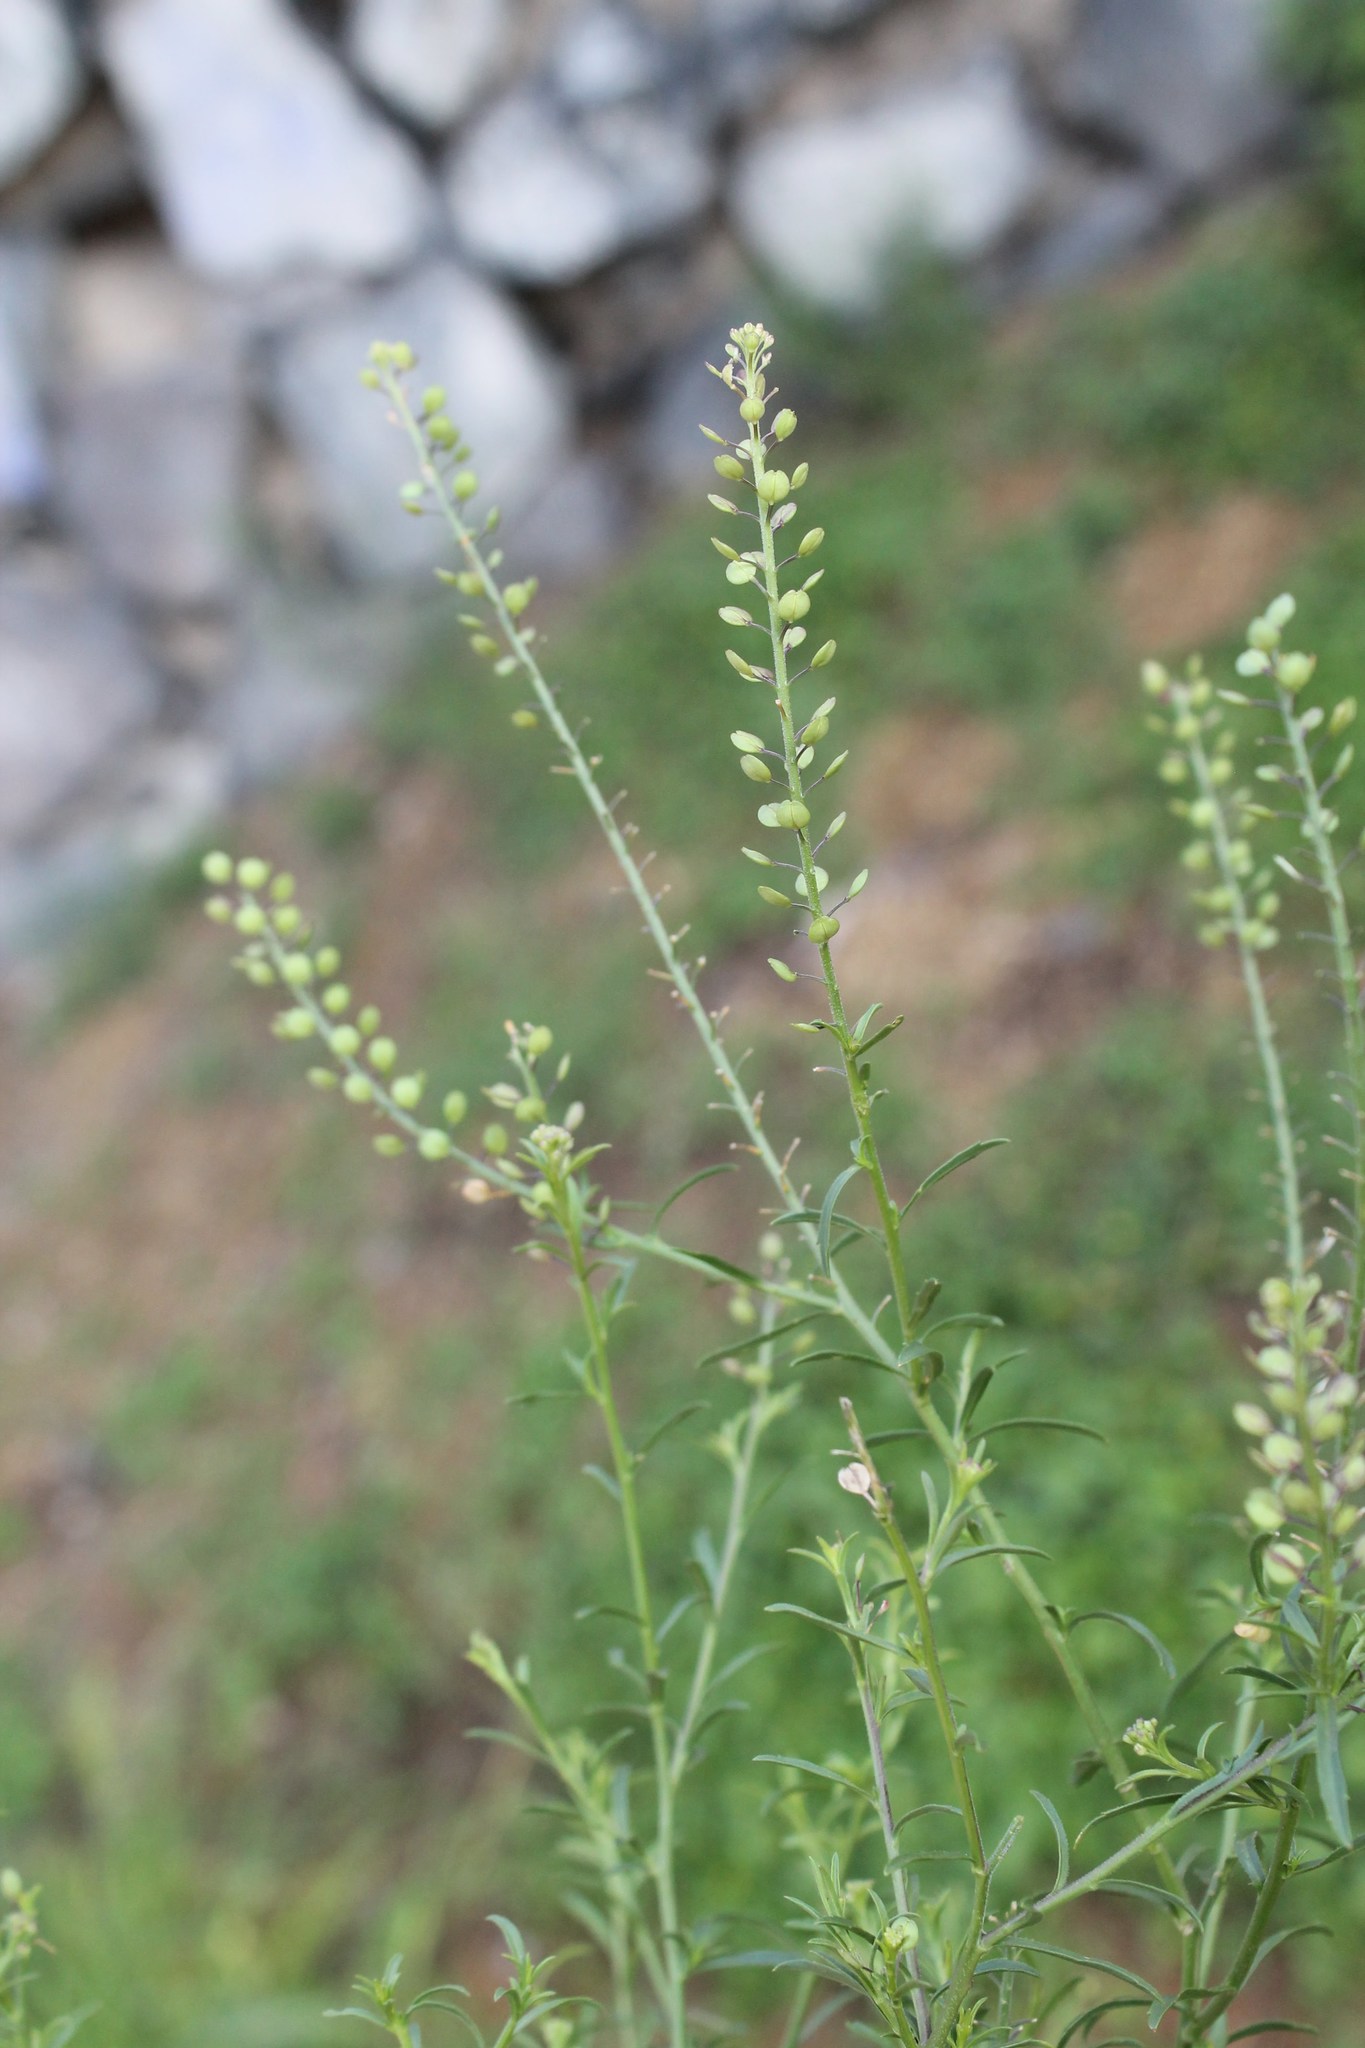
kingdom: Plantae
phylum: Tracheophyta
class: Magnoliopsida
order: Brassicales
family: Brassicaceae
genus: Lepidium
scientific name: Lepidium virginicum
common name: Least pepperwort
